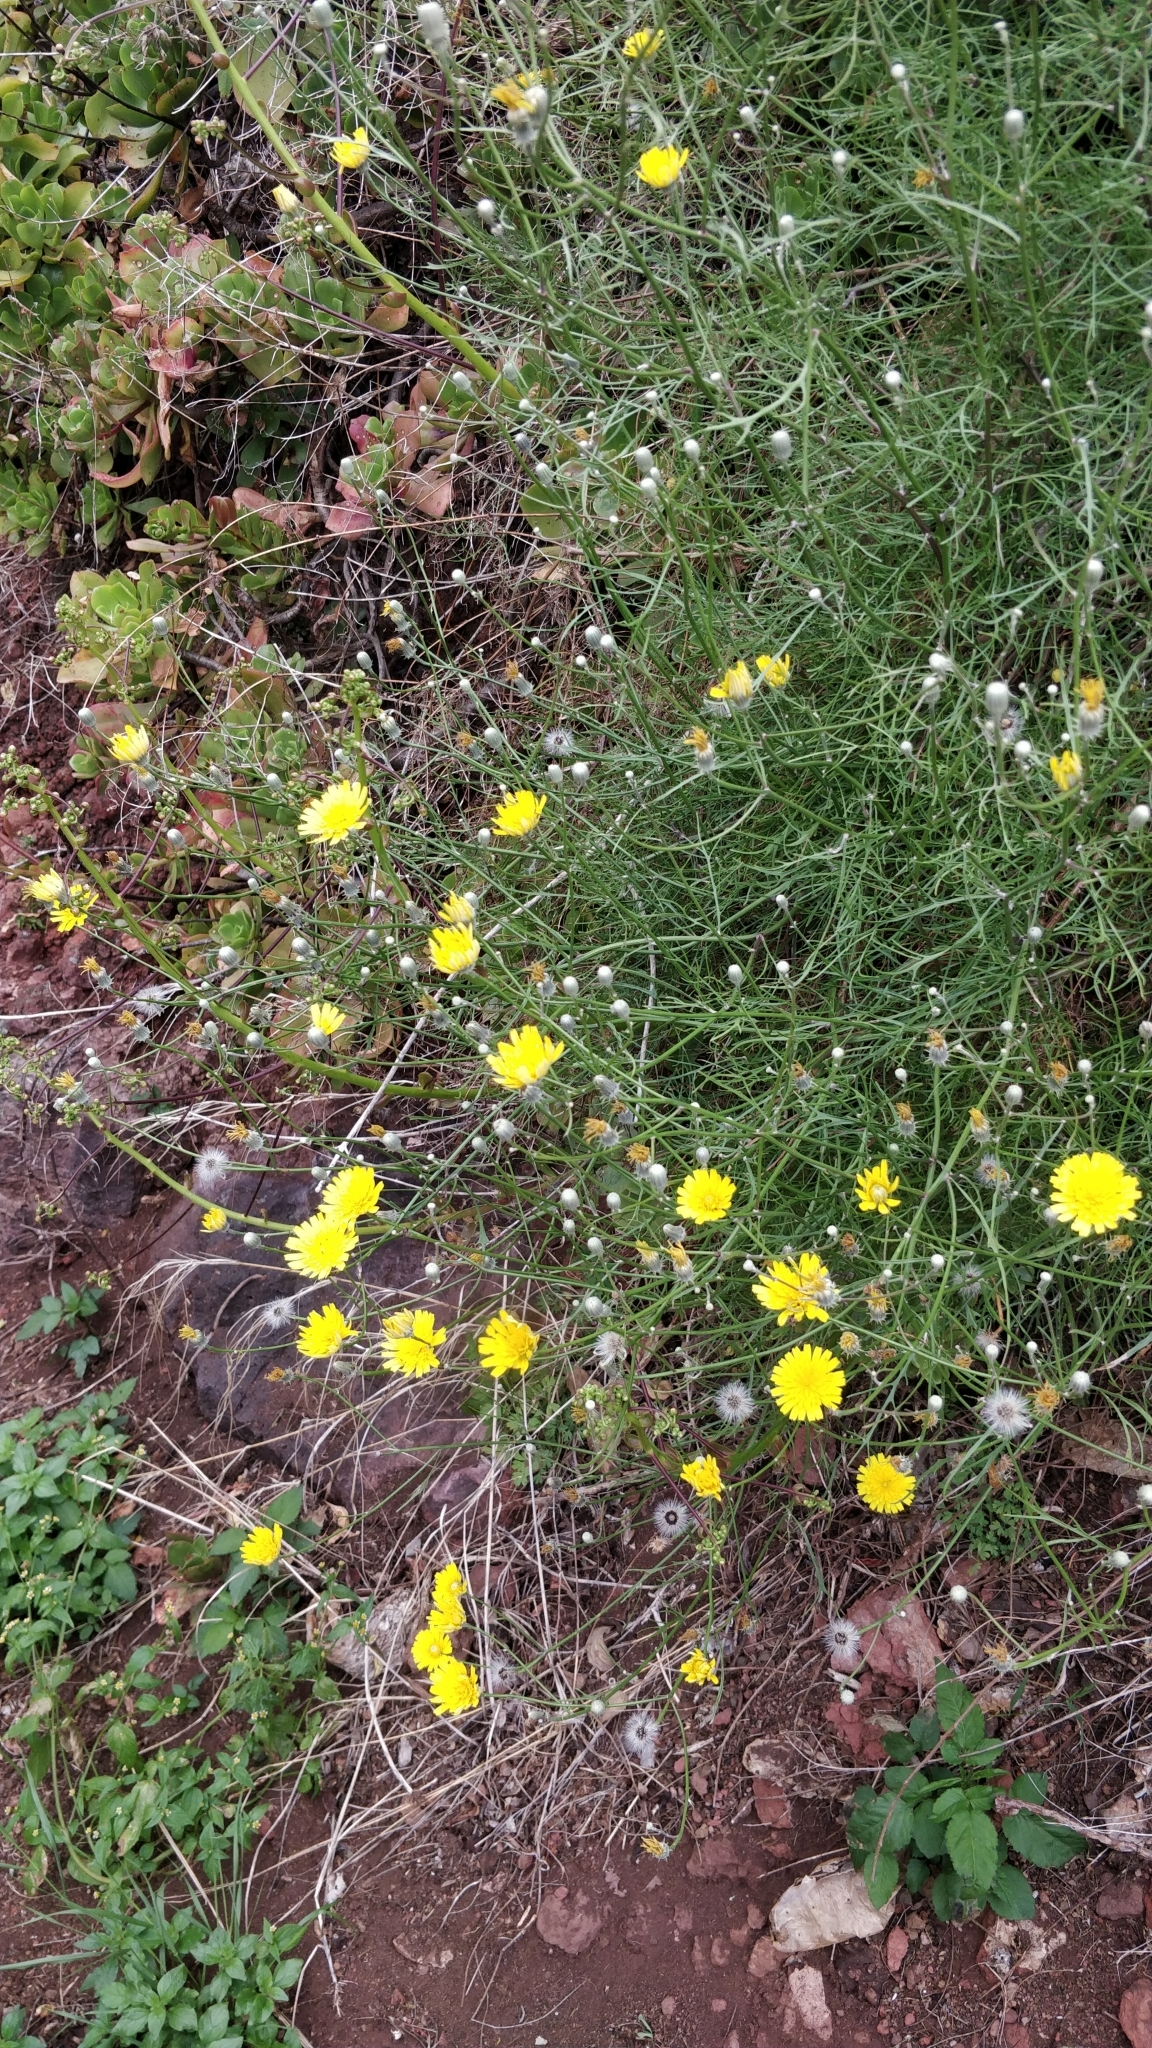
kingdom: Plantae
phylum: Tracheophyta
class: Magnoliopsida
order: Asterales
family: Asteraceae
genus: Tolpis
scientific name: Tolpis succulenta
